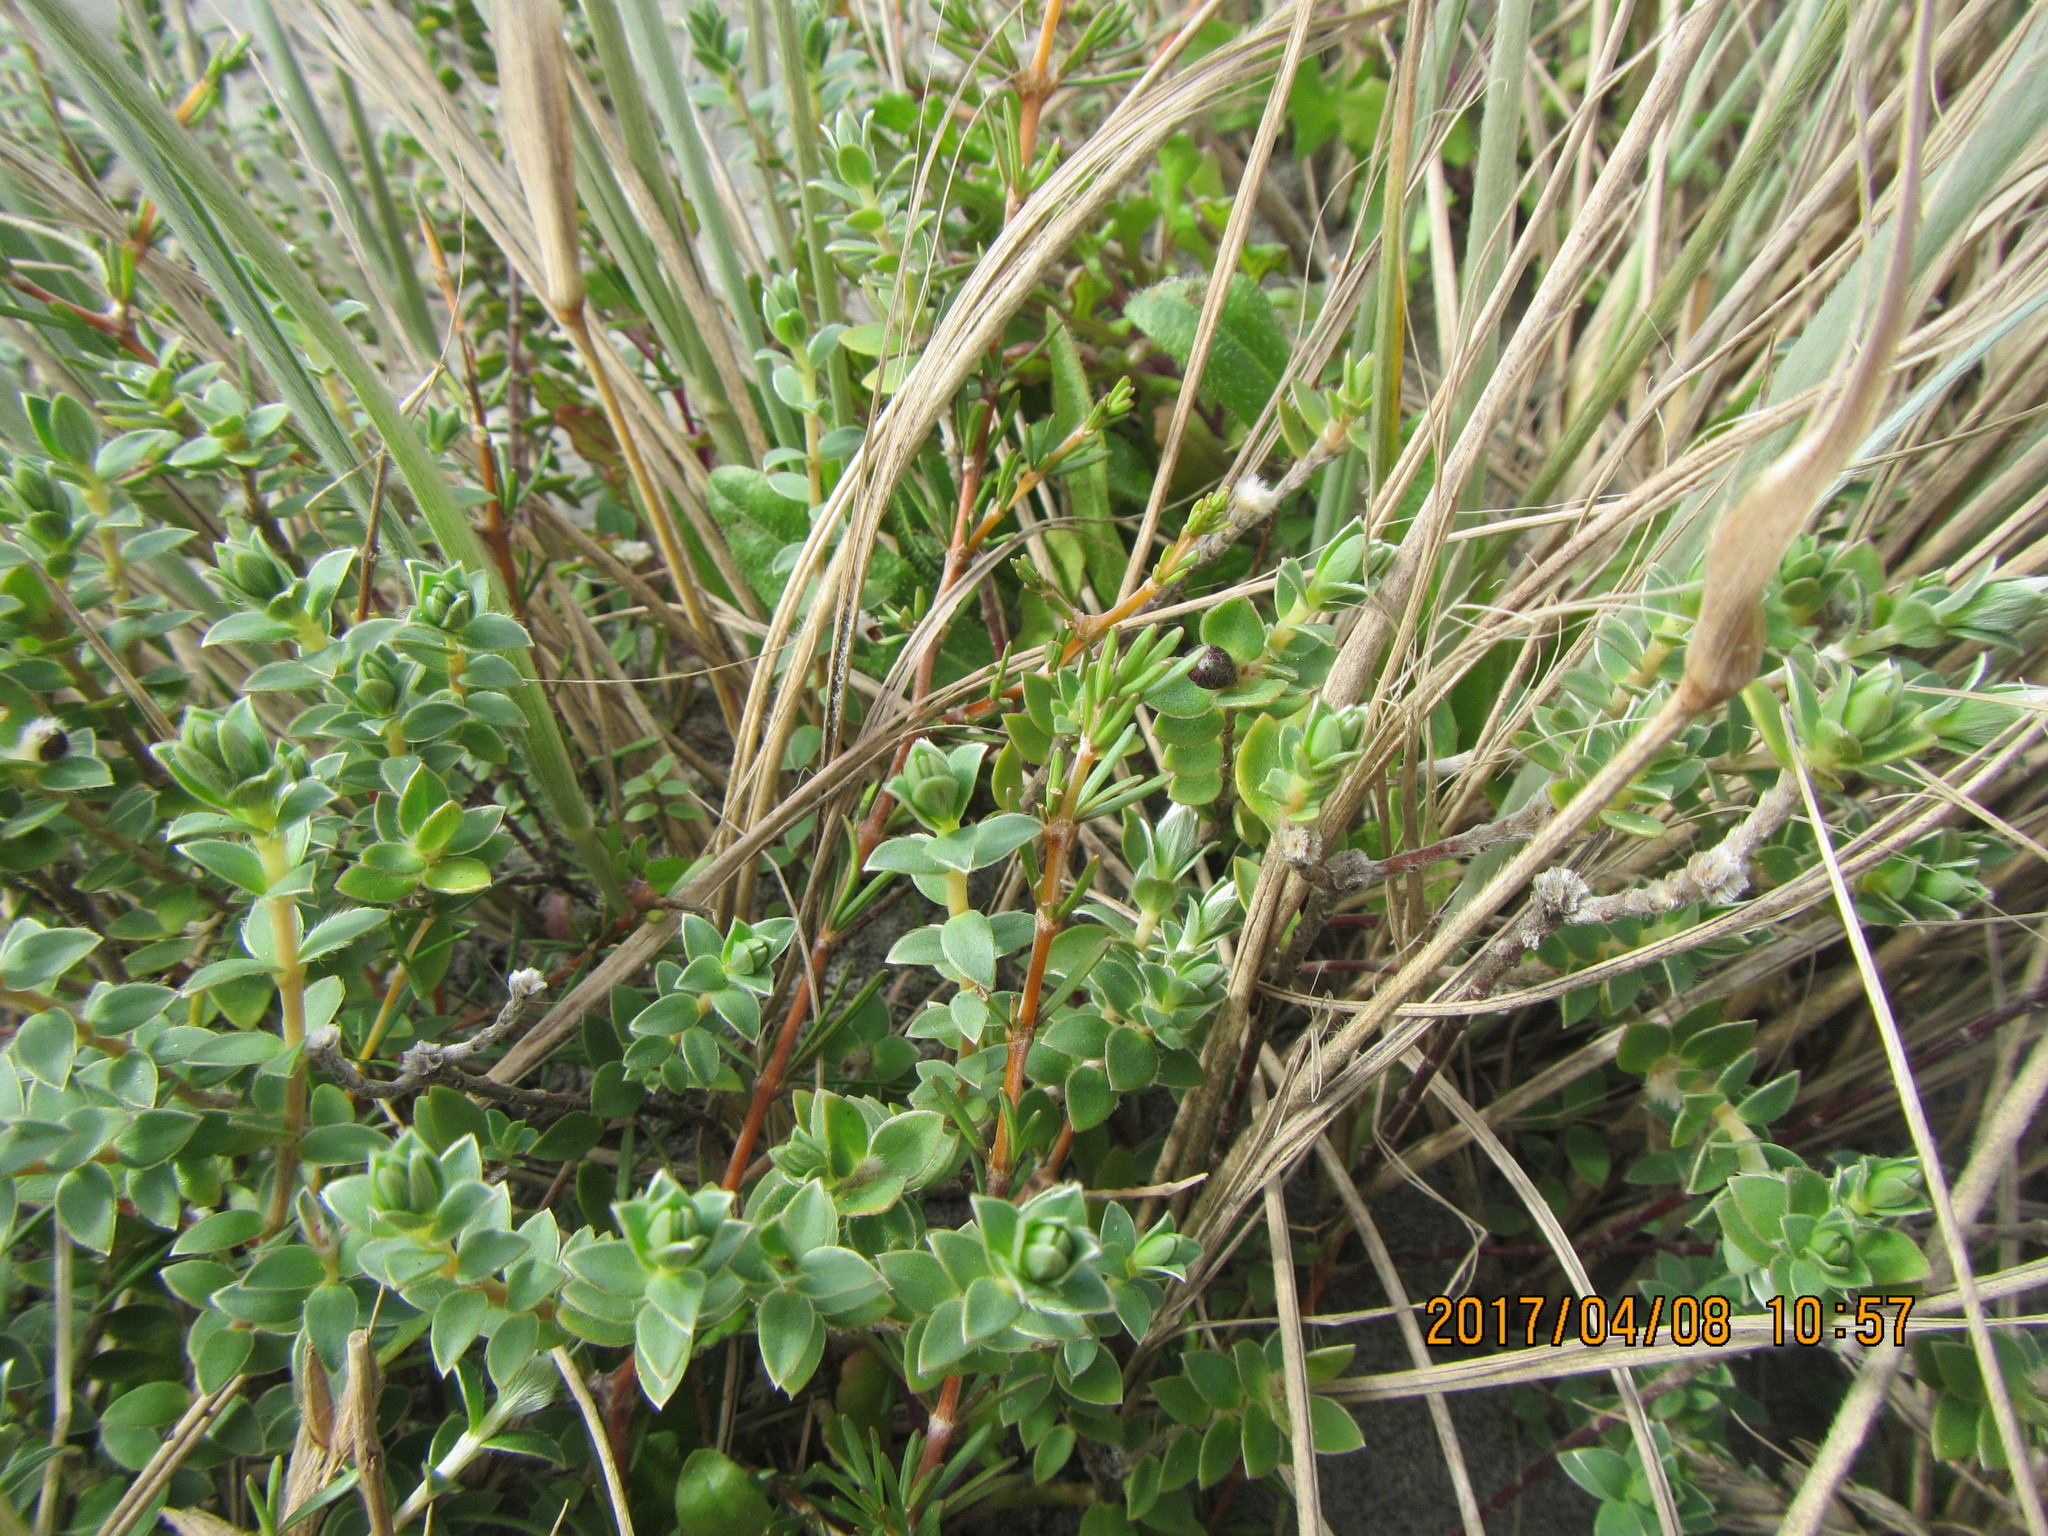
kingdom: Plantae
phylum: Tracheophyta
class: Magnoliopsida
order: Malvales
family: Thymelaeaceae
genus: Pimelea
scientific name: Pimelea villosa
